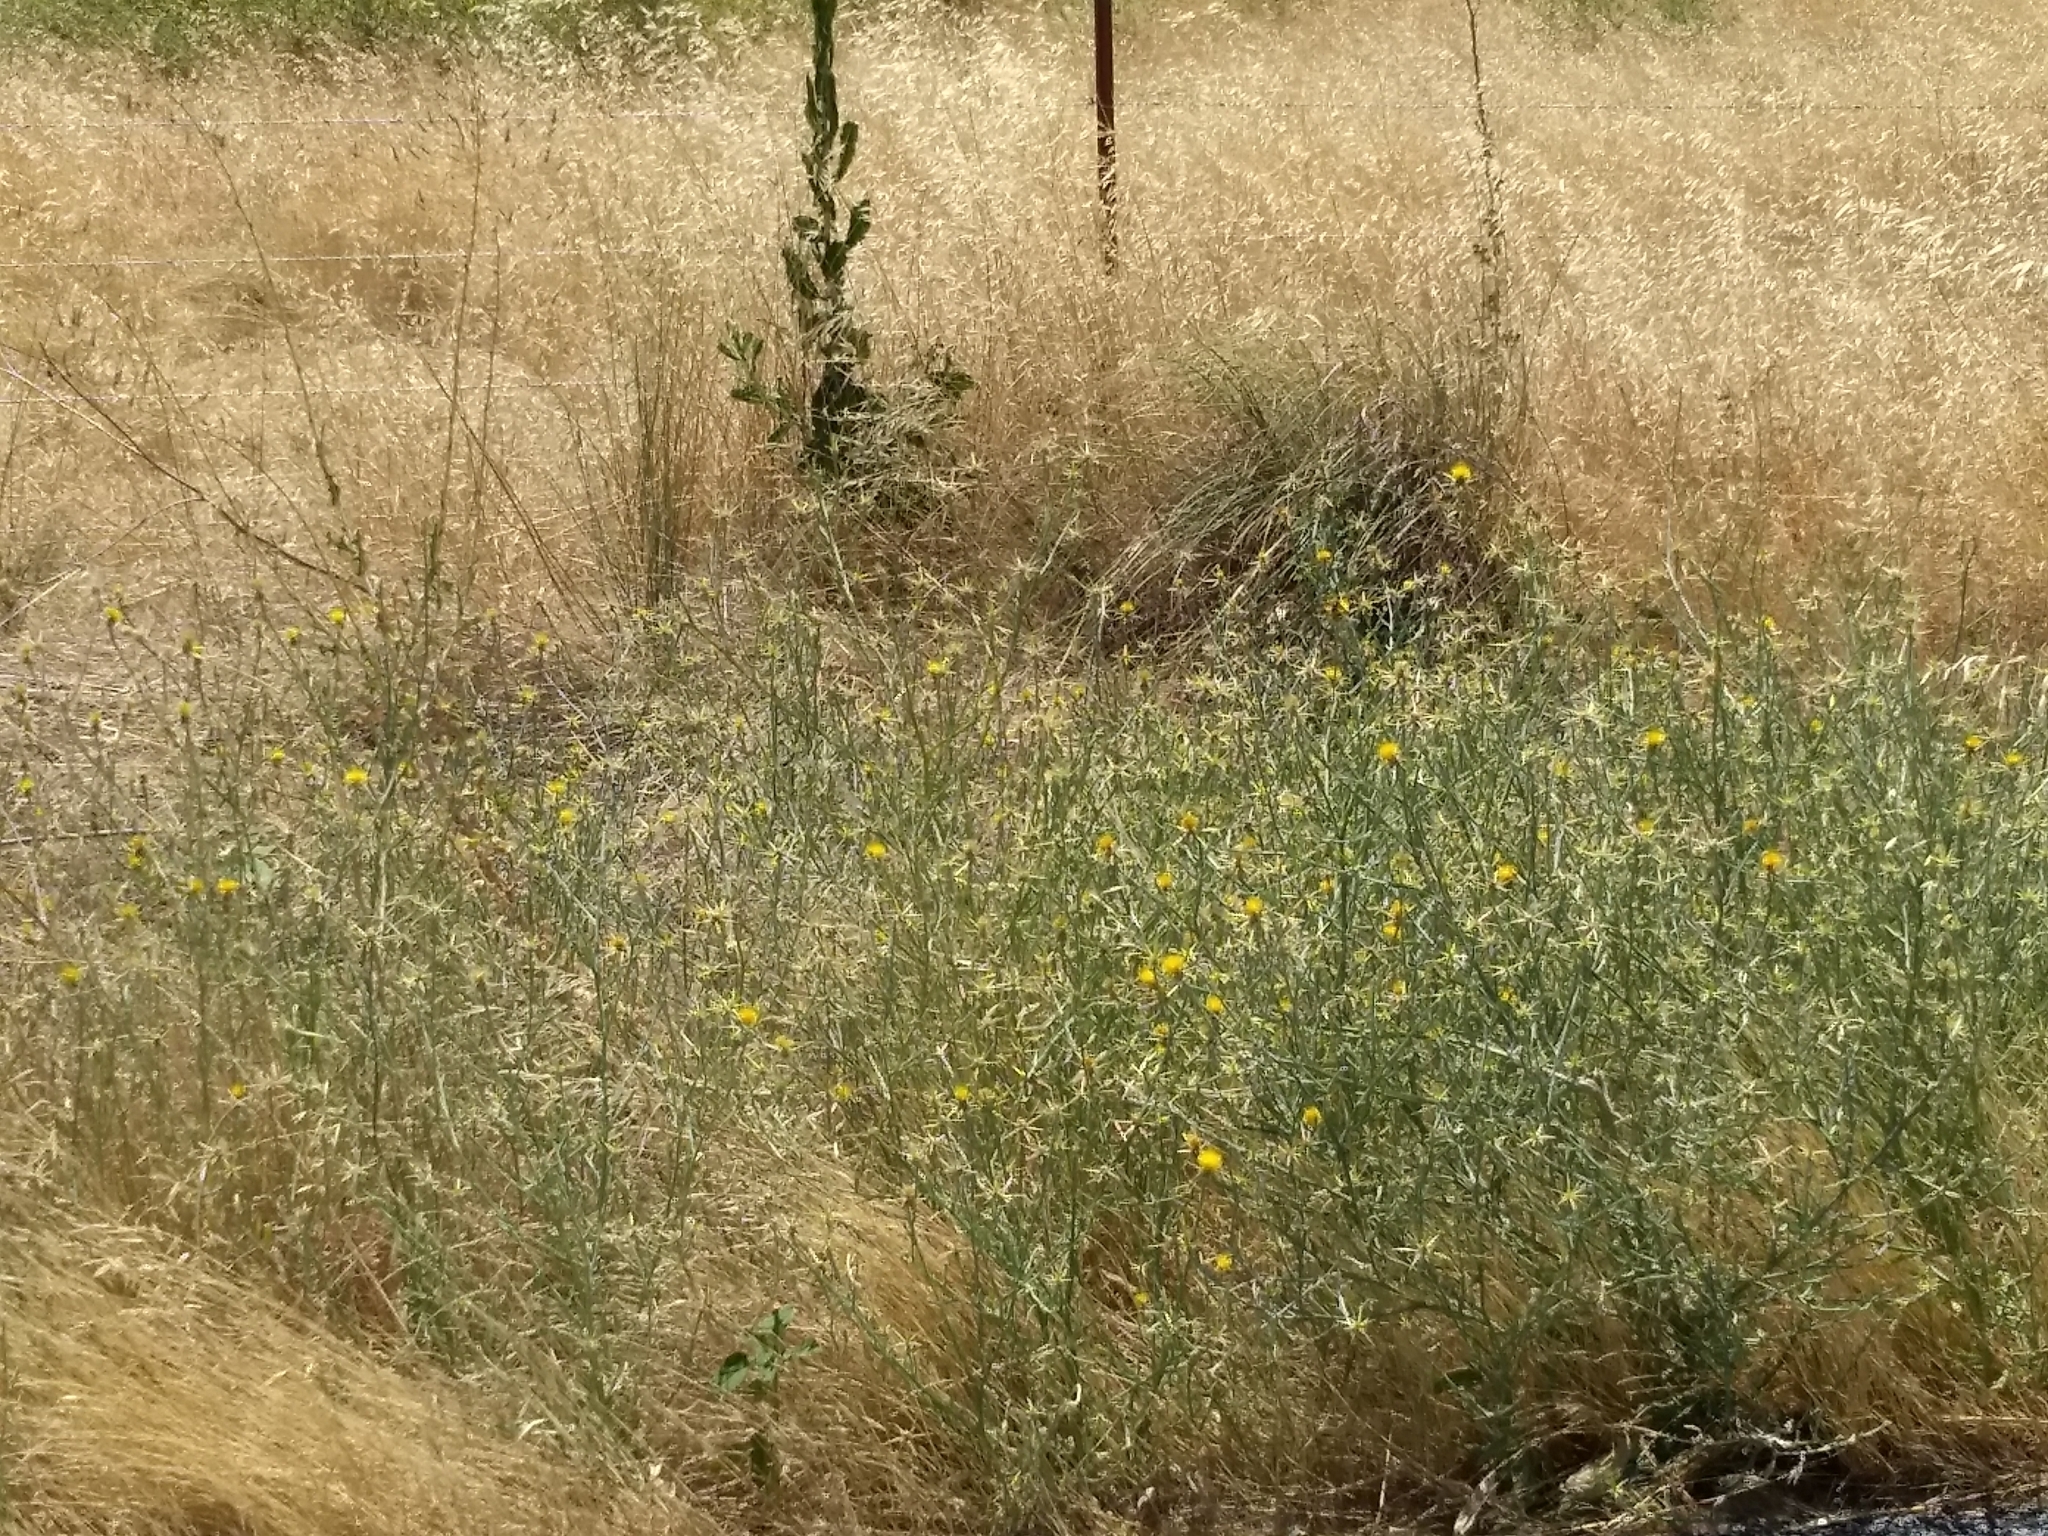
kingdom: Plantae
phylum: Tracheophyta
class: Magnoliopsida
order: Asterales
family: Asteraceae
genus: Centaurea
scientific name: Centaurea solstitialis
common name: Yellow star-thistle
